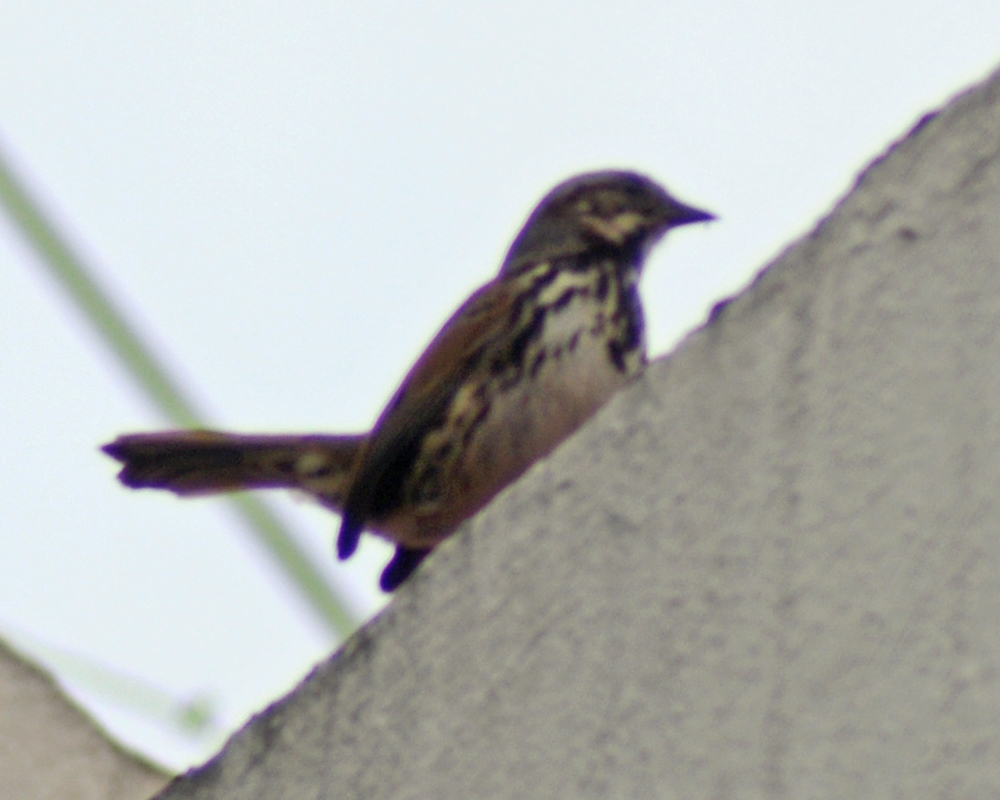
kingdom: Animalia
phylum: Chordata
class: Aves
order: Passeriformes
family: Passerellidae
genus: Melospiza
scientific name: Melospiza melodia
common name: Song sparrow
